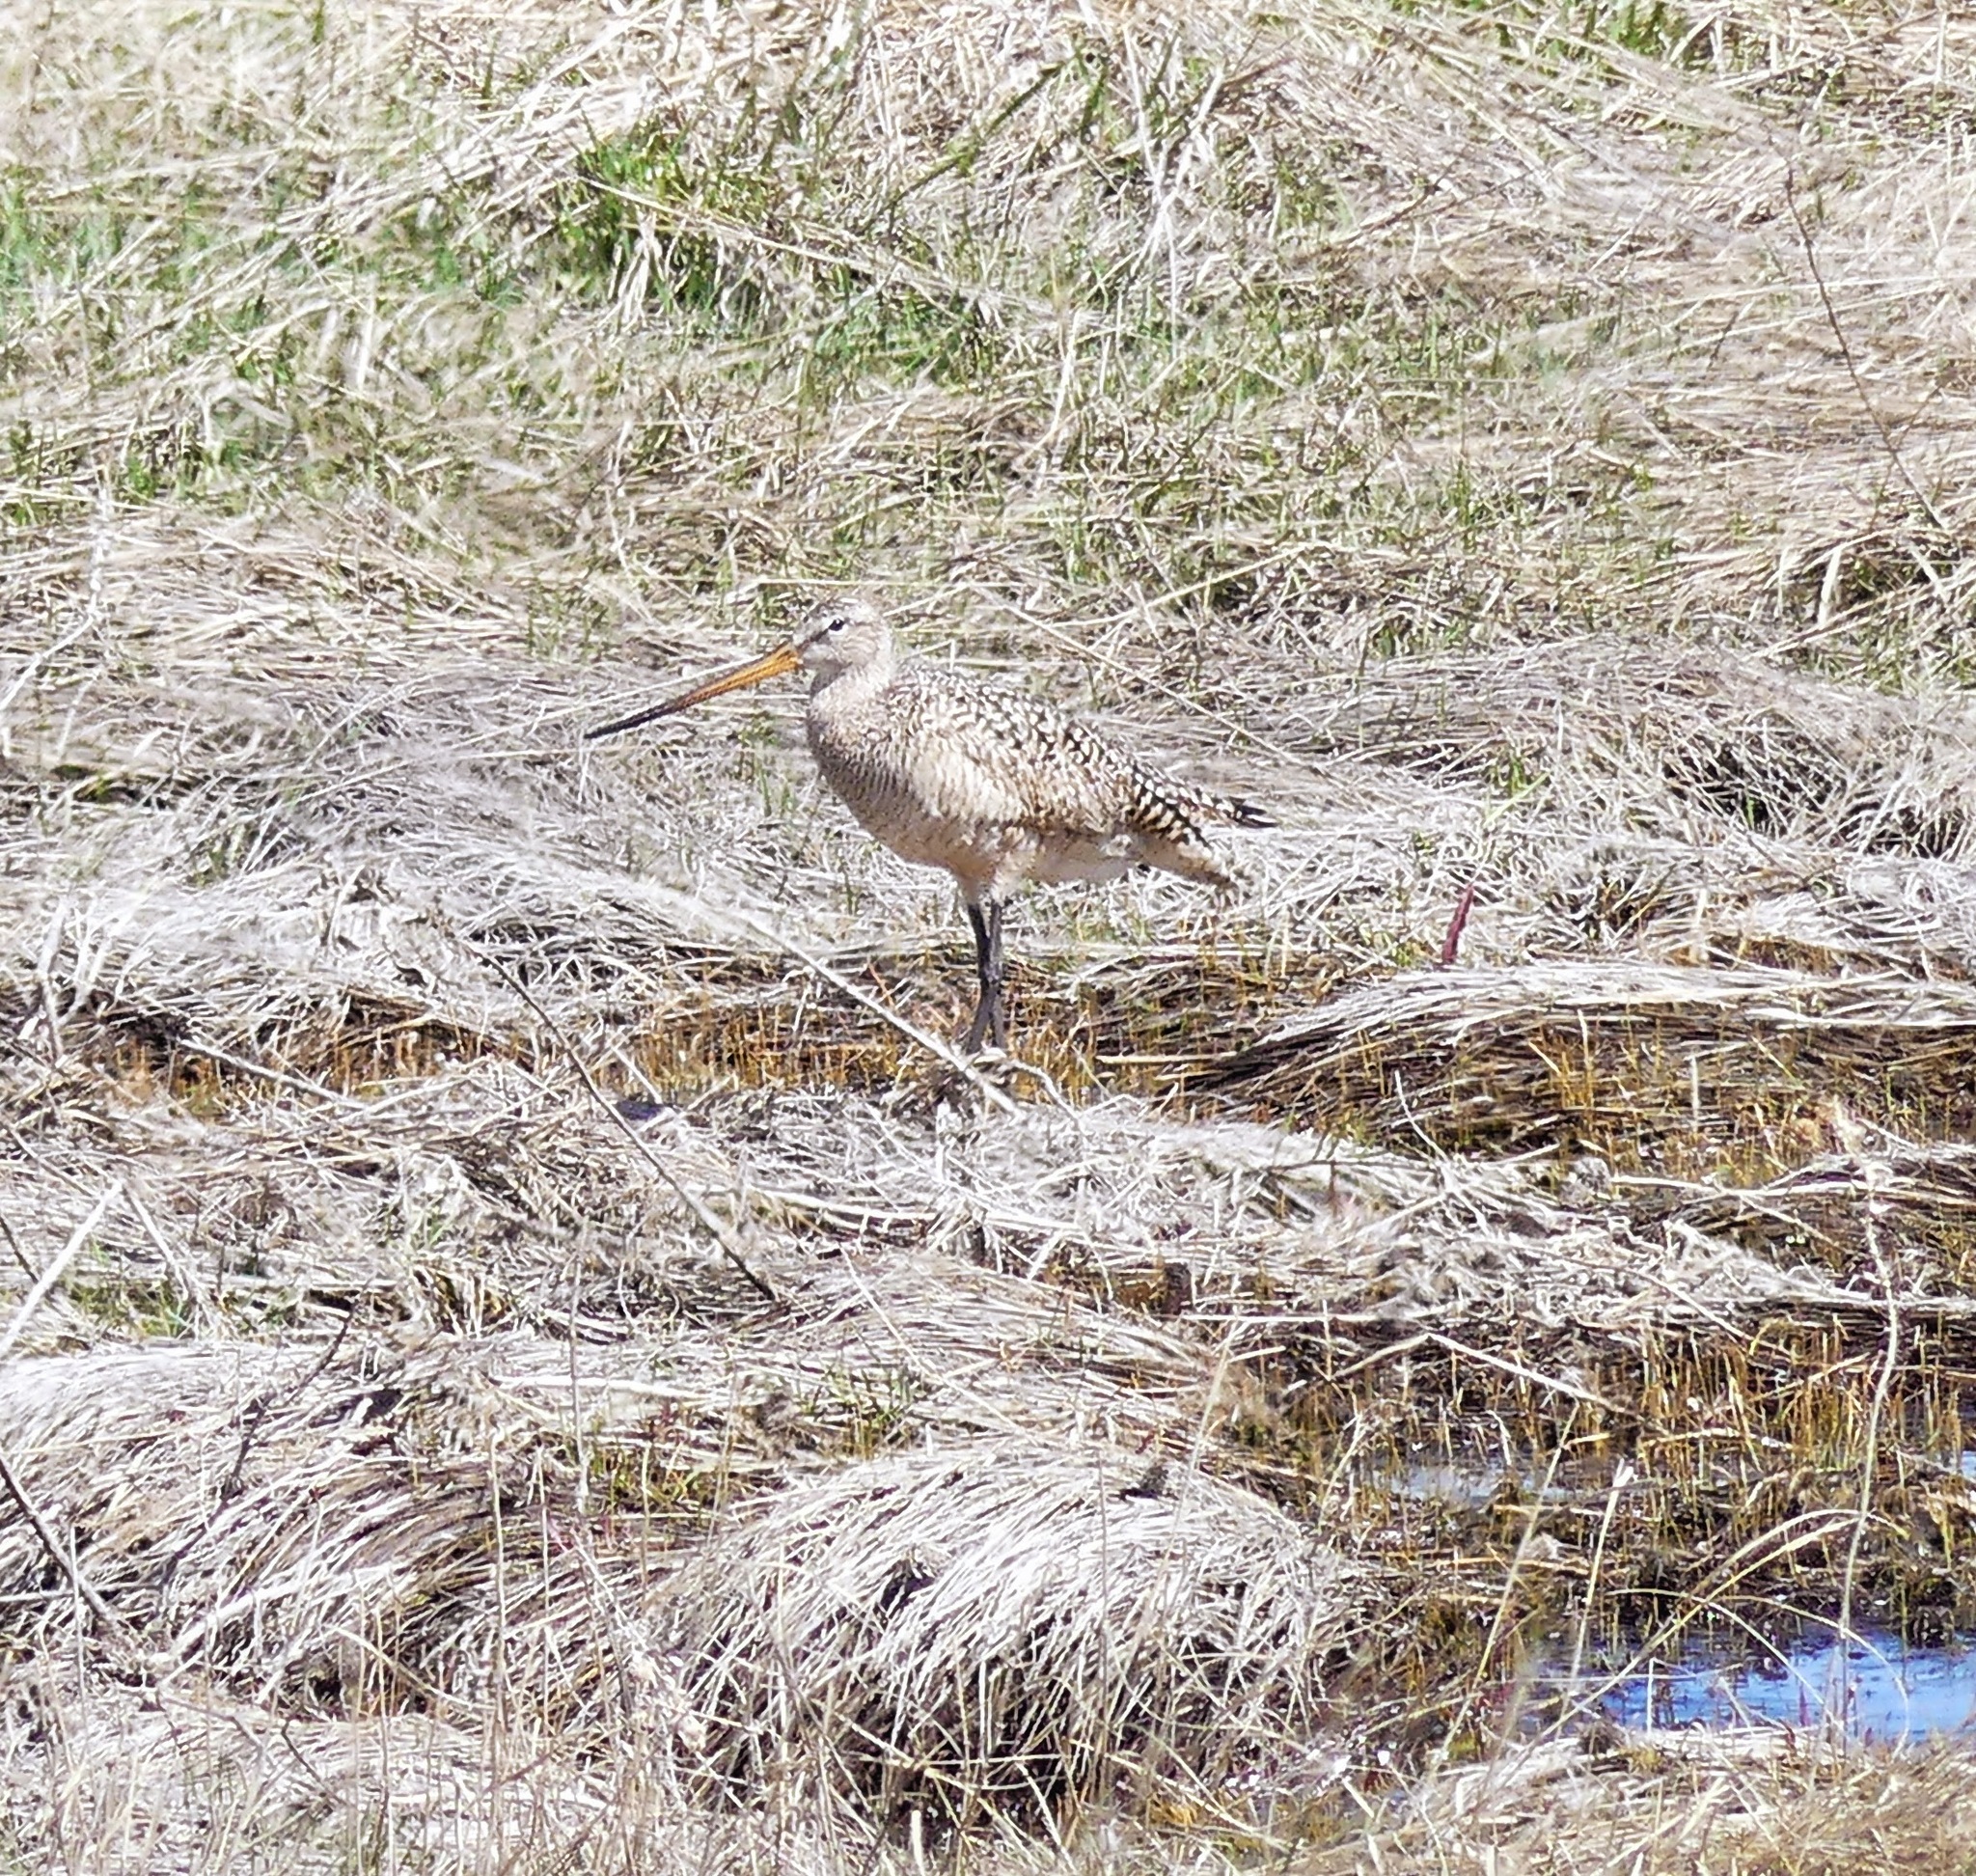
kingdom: Animalia
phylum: Chordata
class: Aves
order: Charadriiformes
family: Scolopacidae
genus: Limosa
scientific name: Limosa fedoa
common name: Marbled godwit
